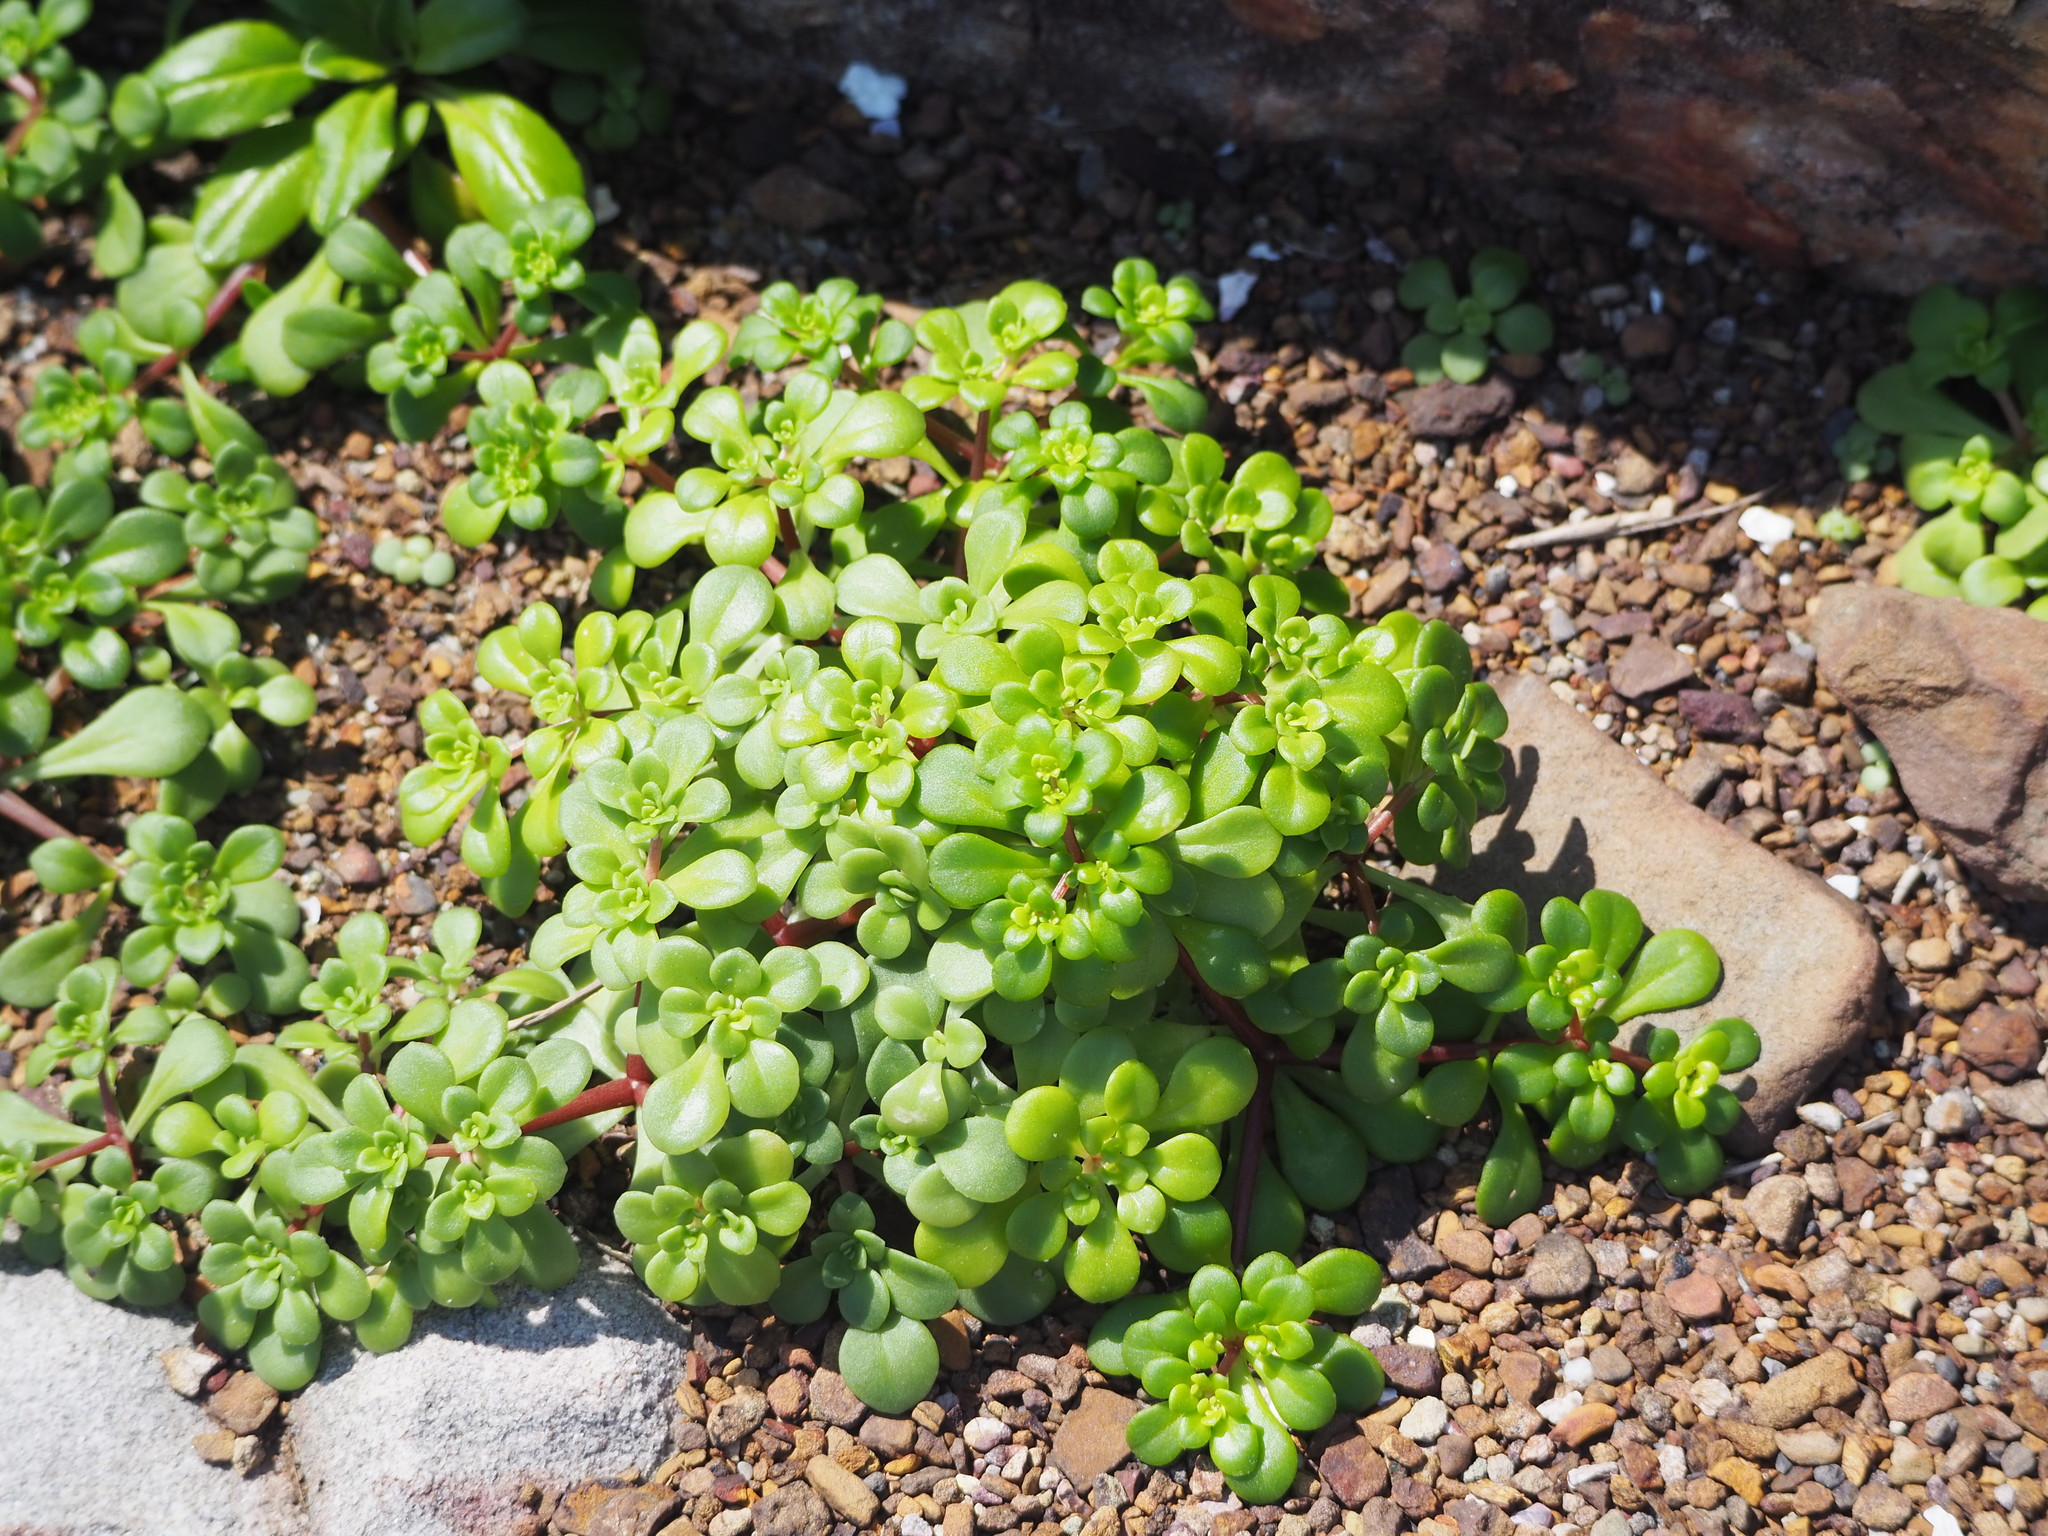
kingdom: Plantae
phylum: Tracheophyta
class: Magnoliopsida
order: Saxifragales
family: Crassulaceae
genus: Sedum
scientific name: Sedum formosanum
